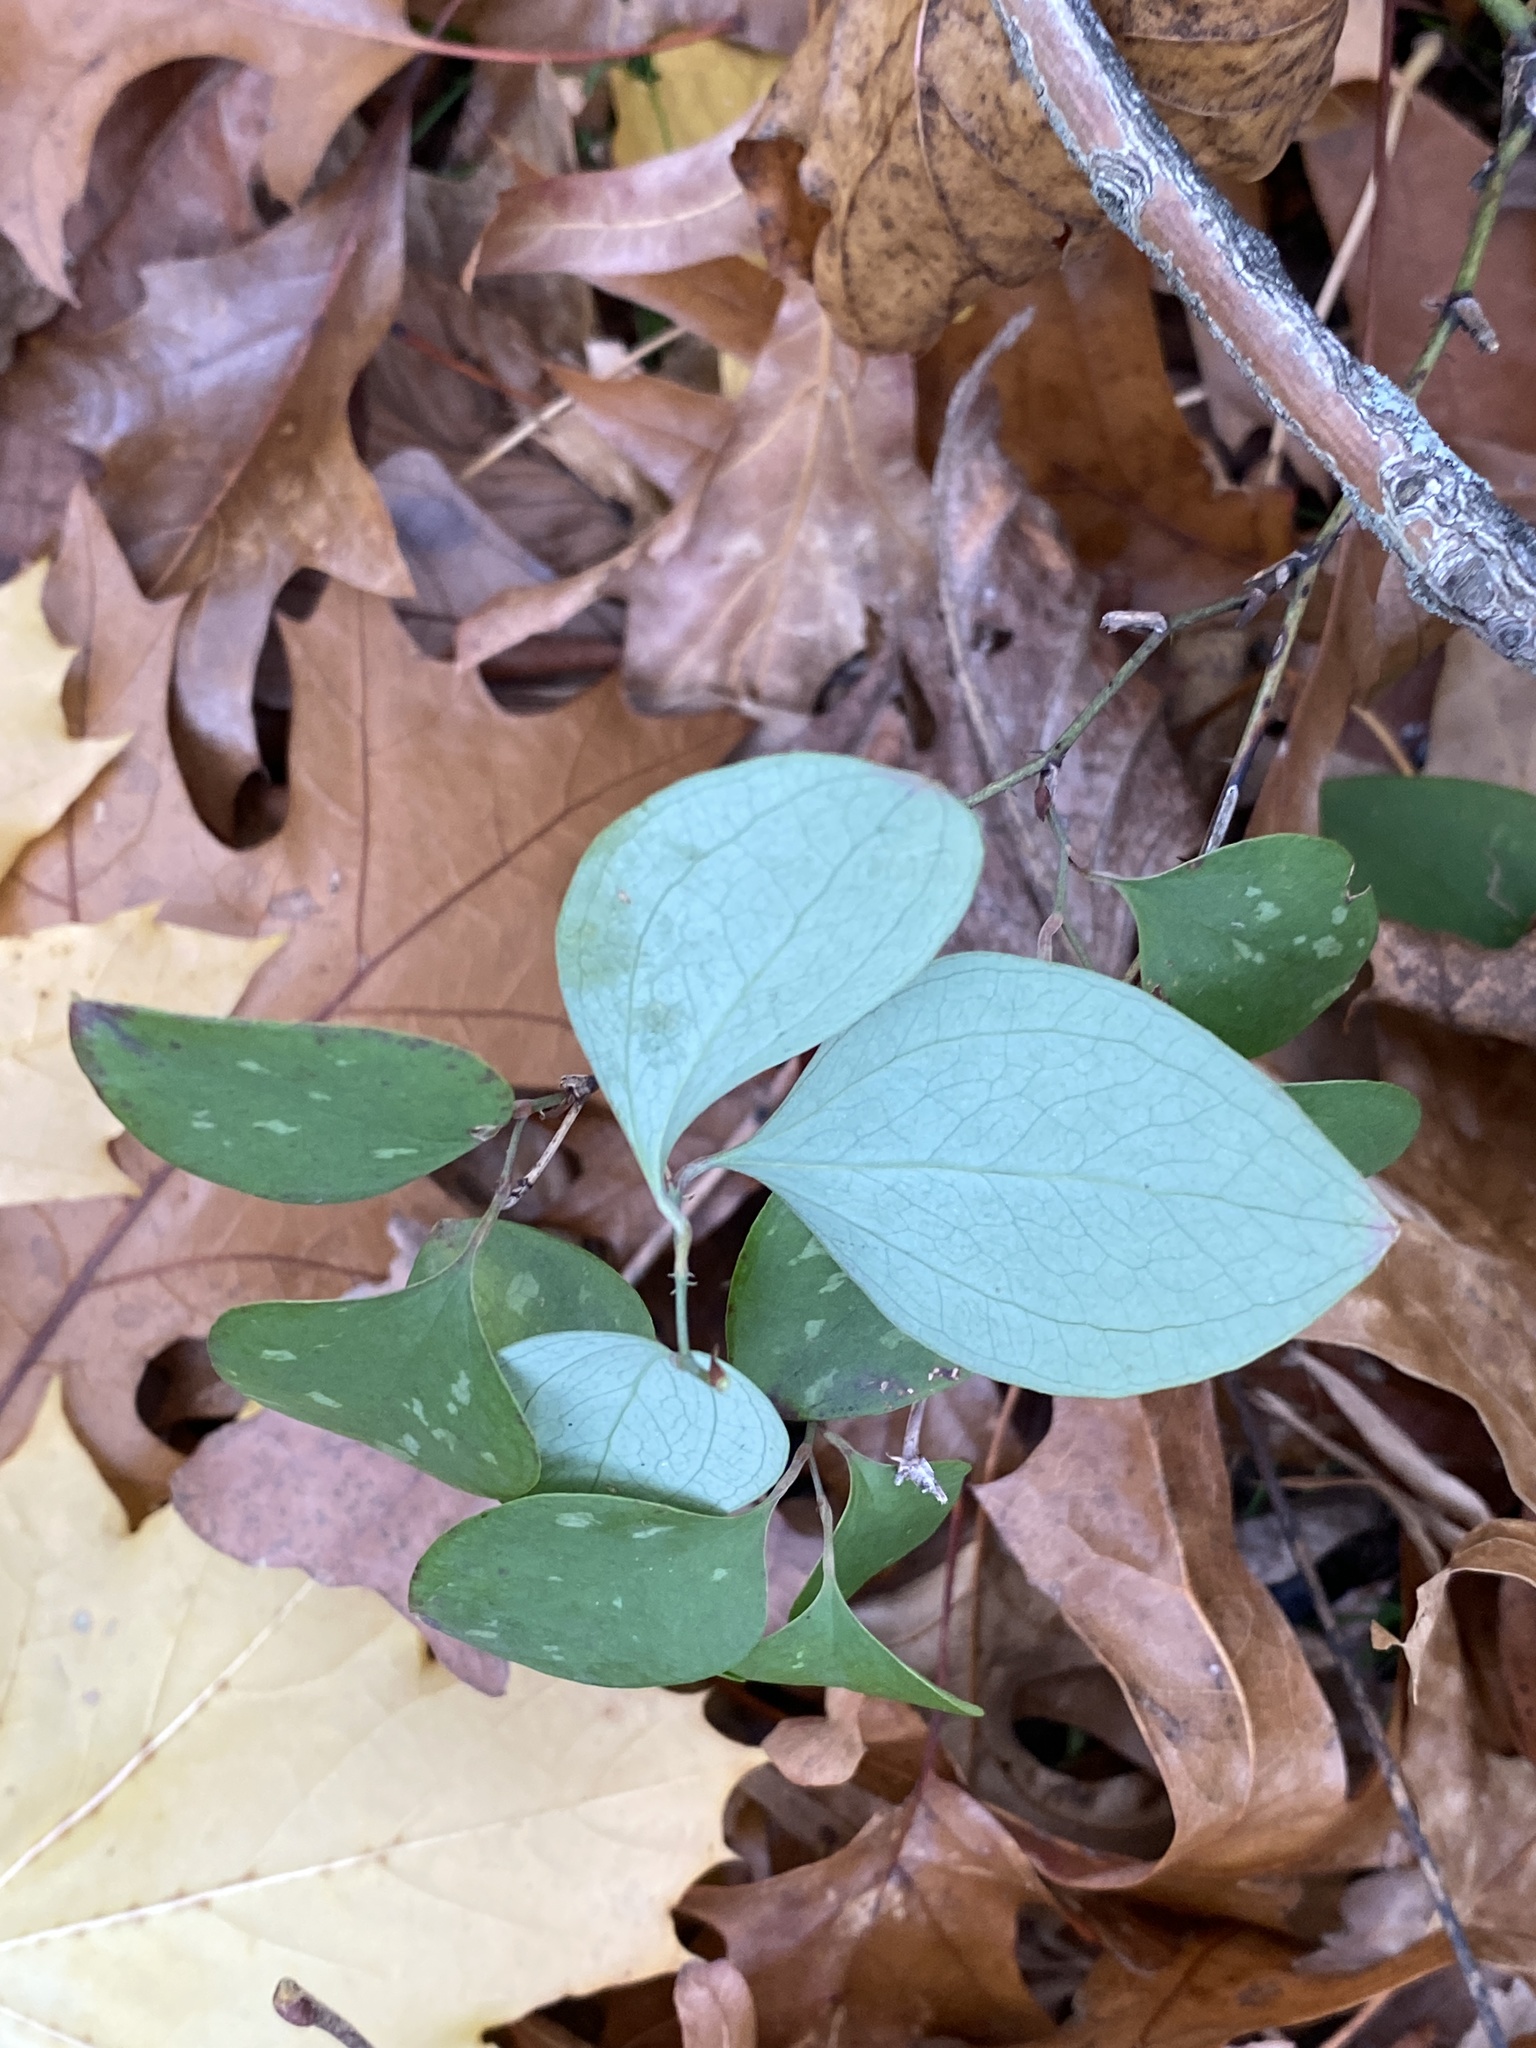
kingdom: Plantae
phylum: Tracheophyta
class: Liliopsida
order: Liliales
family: Smilacaceae
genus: Smilax
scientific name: Smilax glauca
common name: Cat greenbrier
